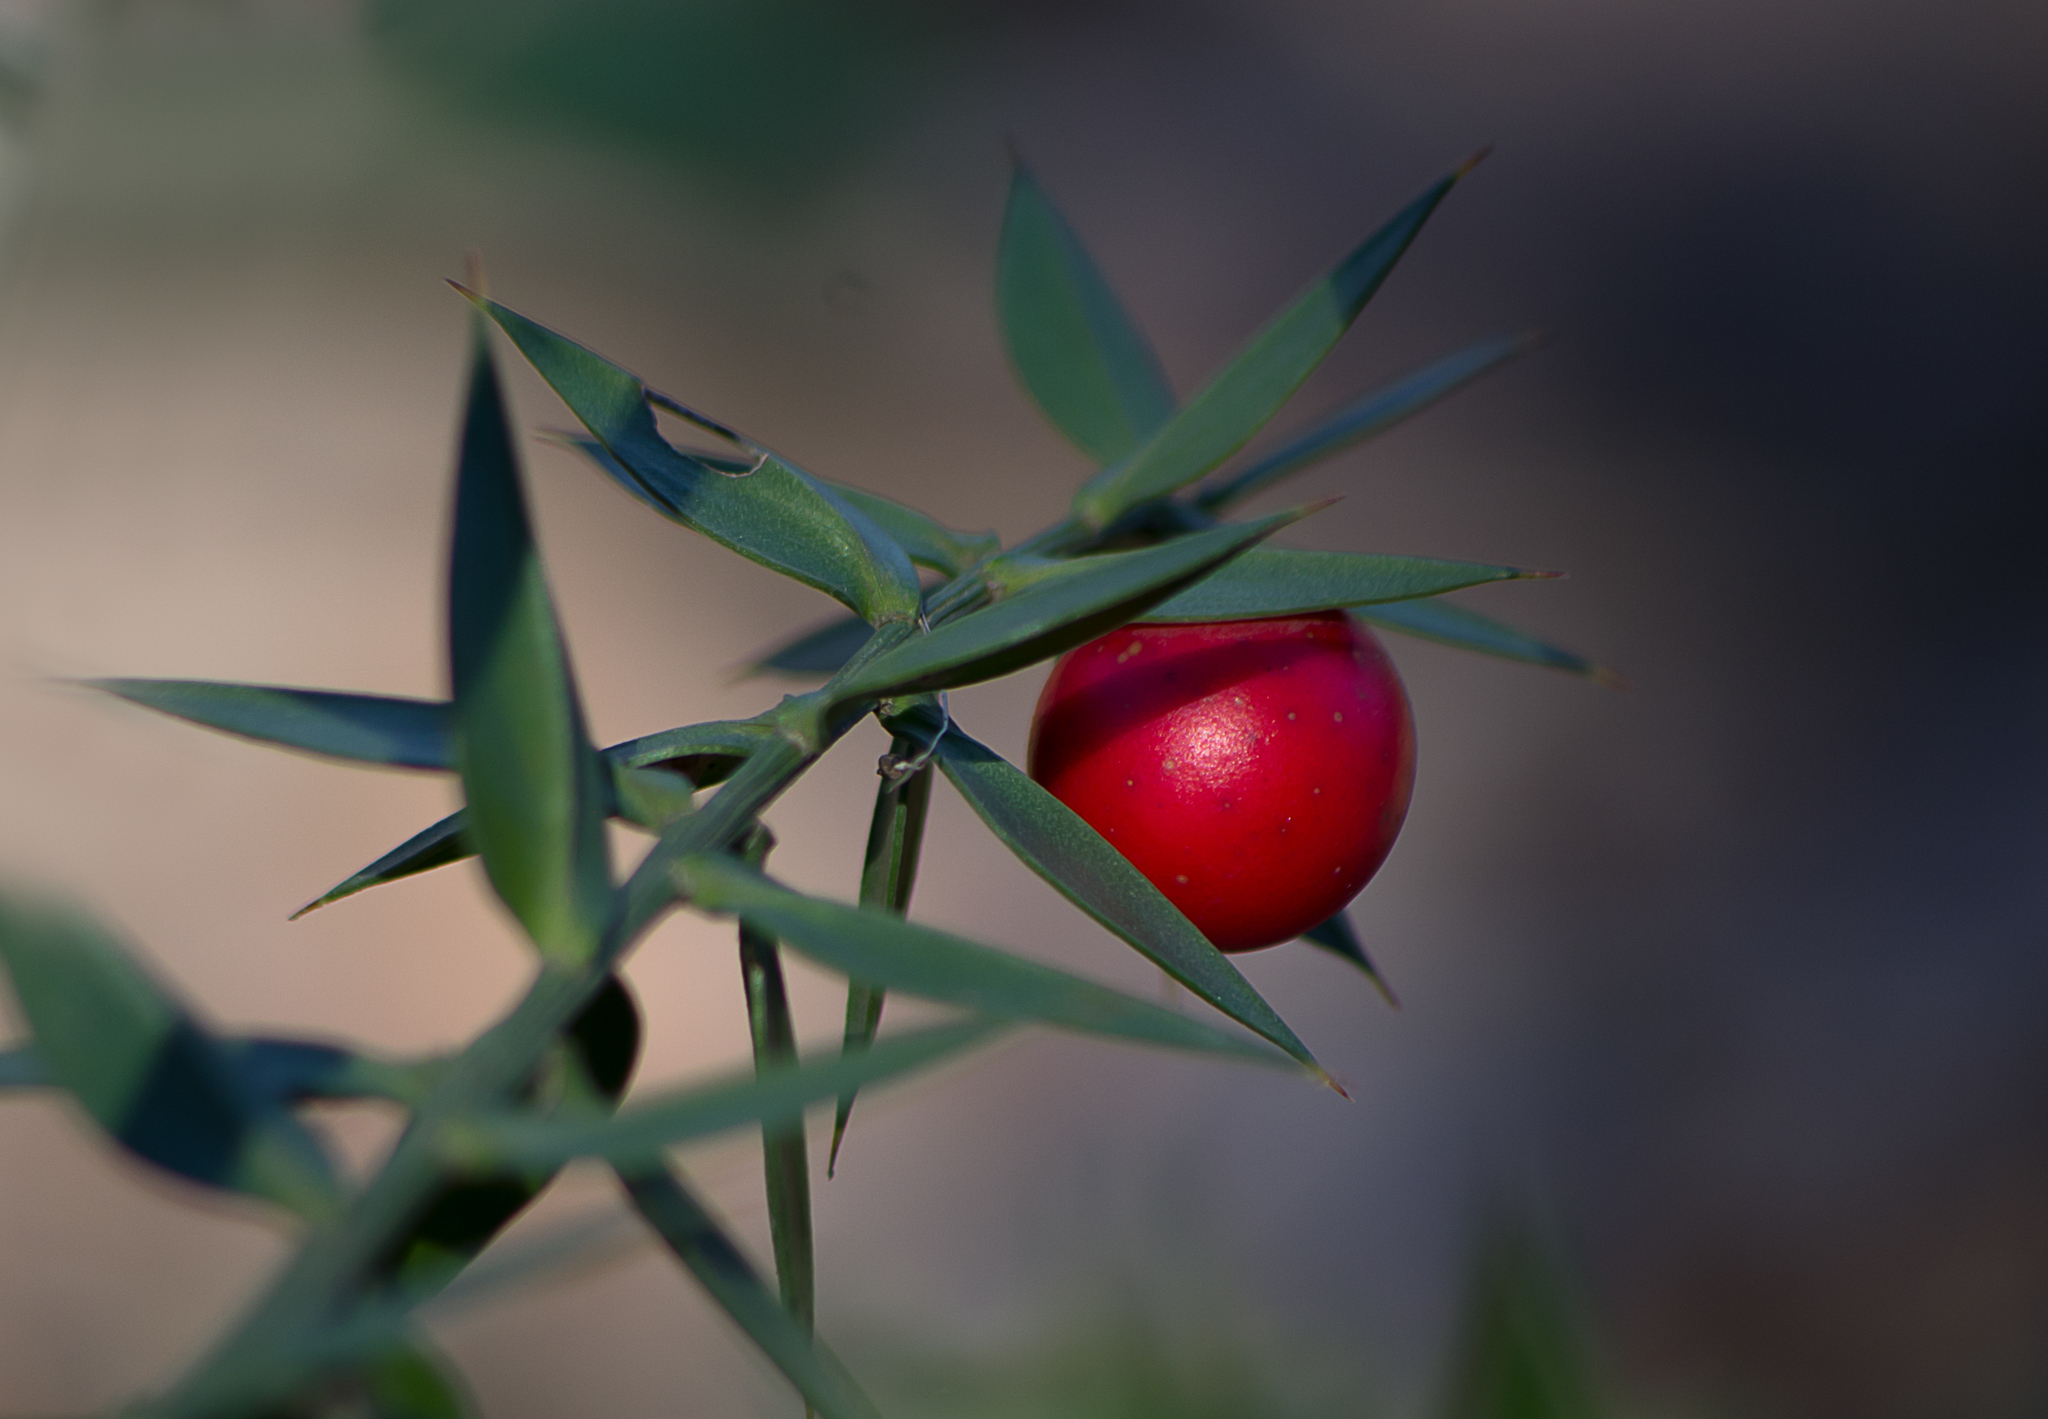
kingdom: Plantae
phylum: Tracheophyta
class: Liliopsida
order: Asparagales
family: Asparagaceae
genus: Ruscus
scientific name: Ruscus aculeatus
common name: Butcher's-broom
